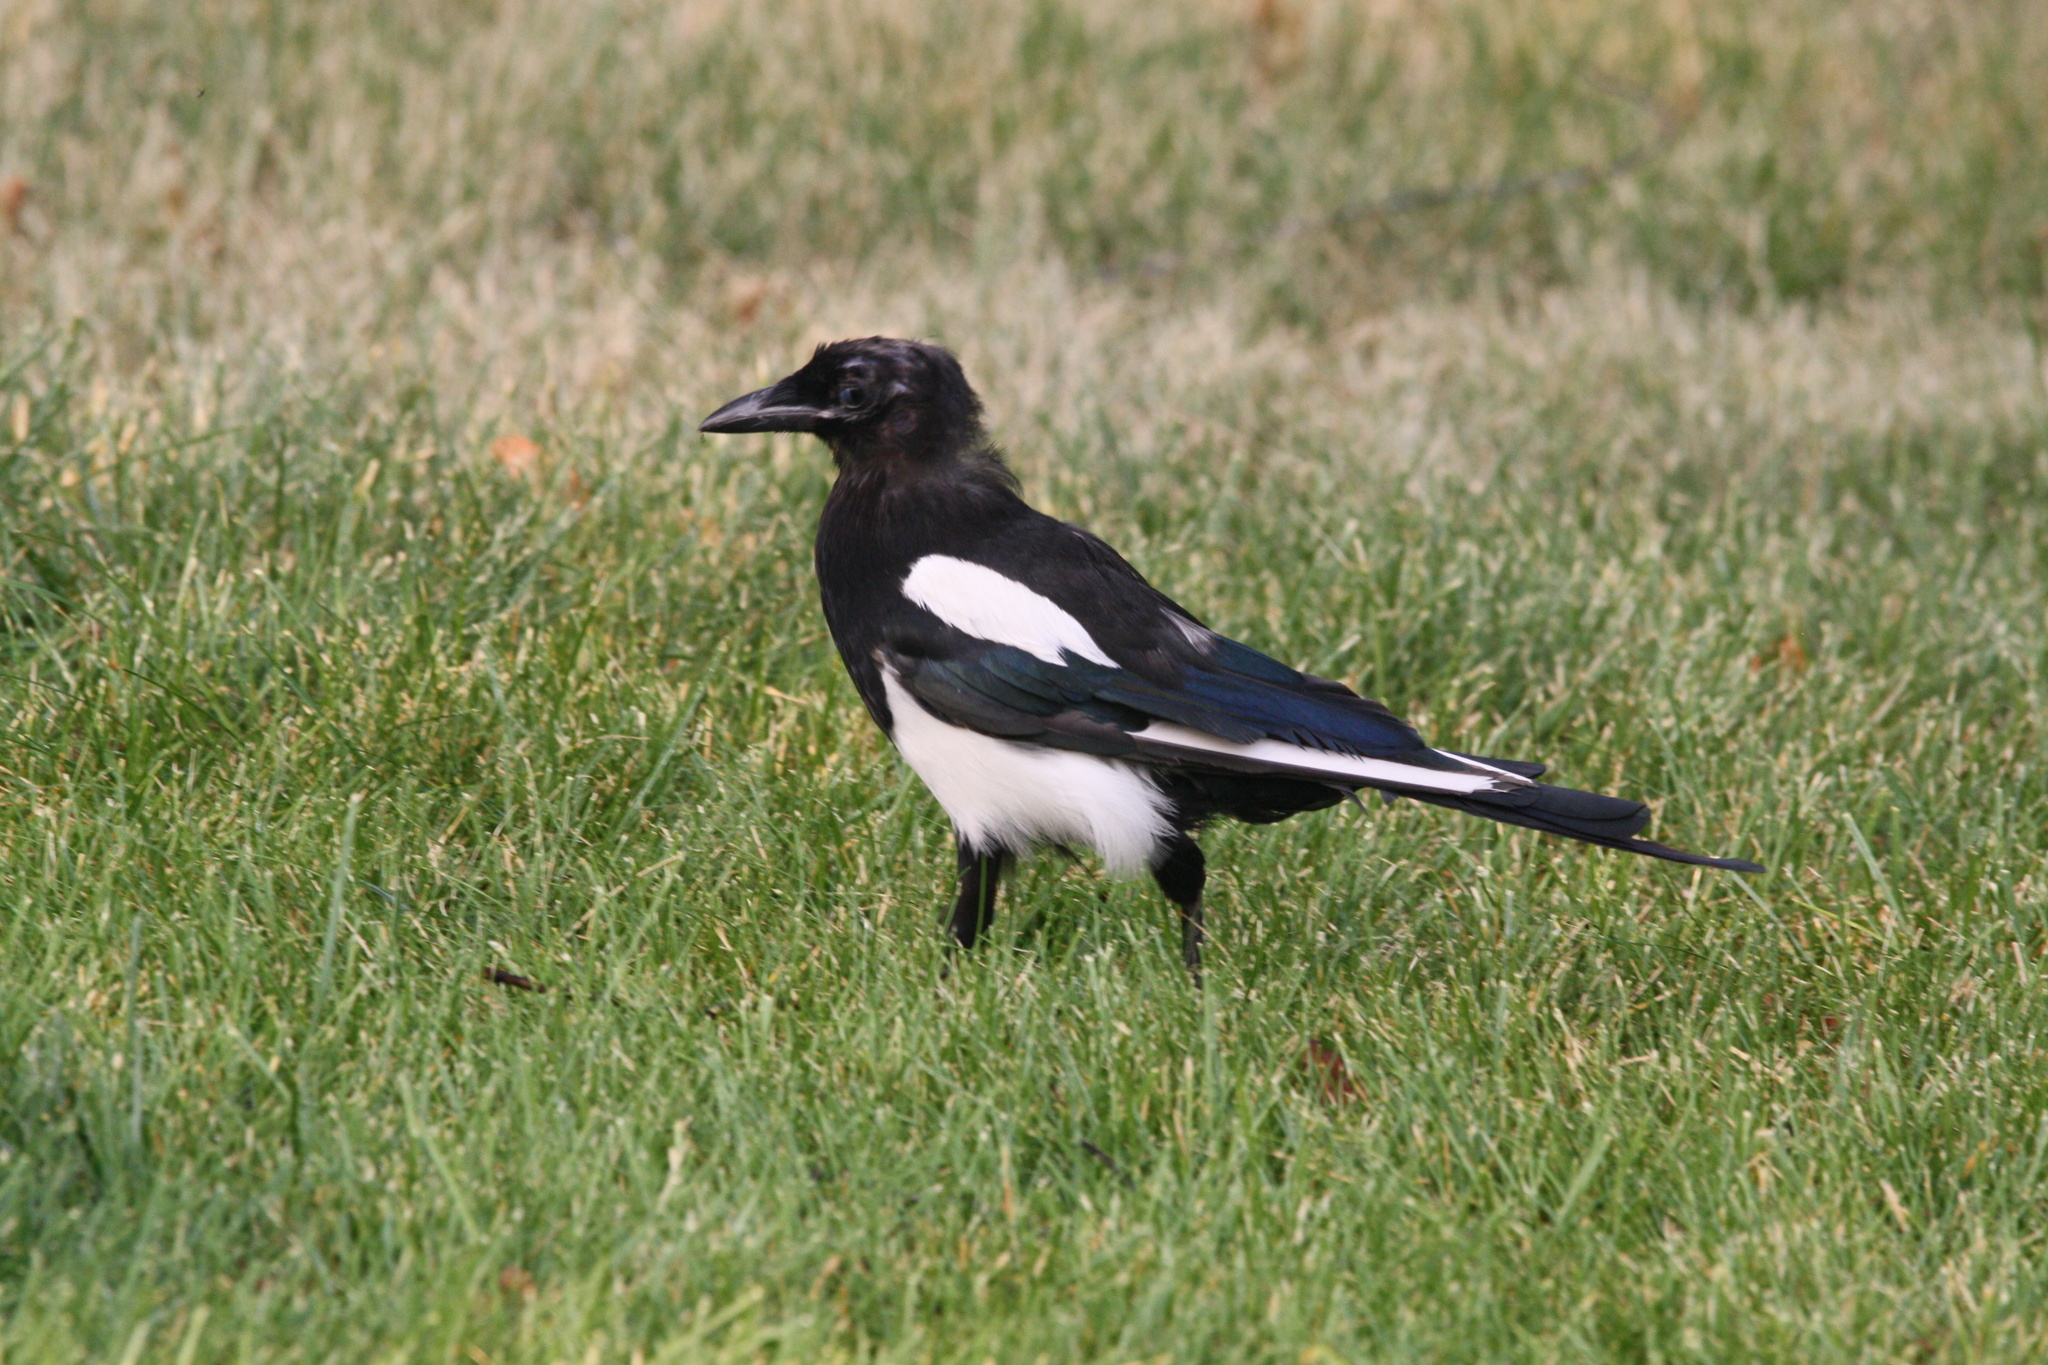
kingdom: Animalia
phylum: Chordata
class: Aves
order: Passeriformes
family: Corvidae
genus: Pica
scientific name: Pica hudsonia
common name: Black-billed magpie
